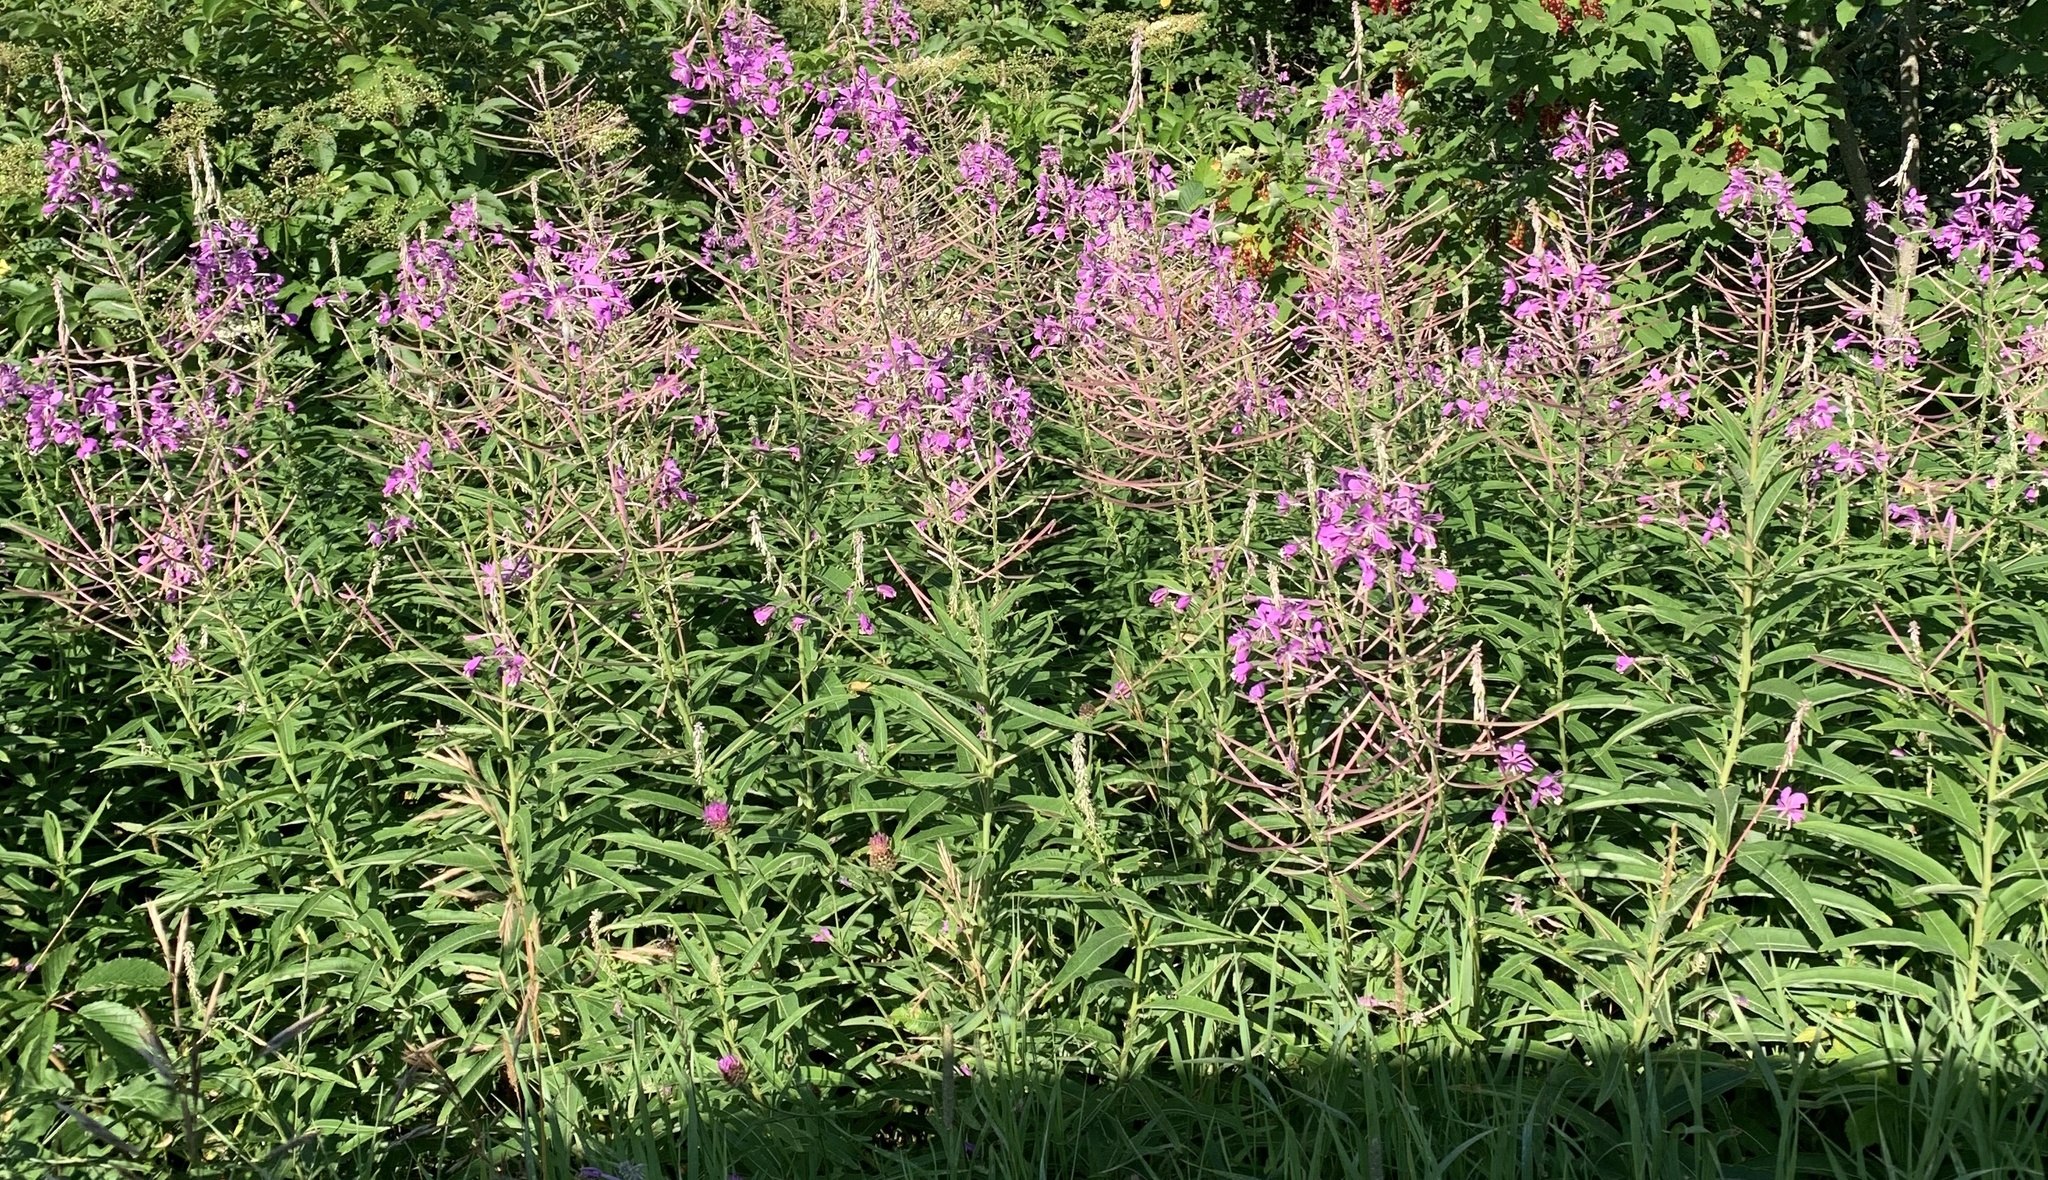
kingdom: Plantae
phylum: Tracheophyta
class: Magnoliopsida
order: Myrtales
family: Onagraceae
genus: Chamaenerion
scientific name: Chamaenerion angustifolium
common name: Fireweed
